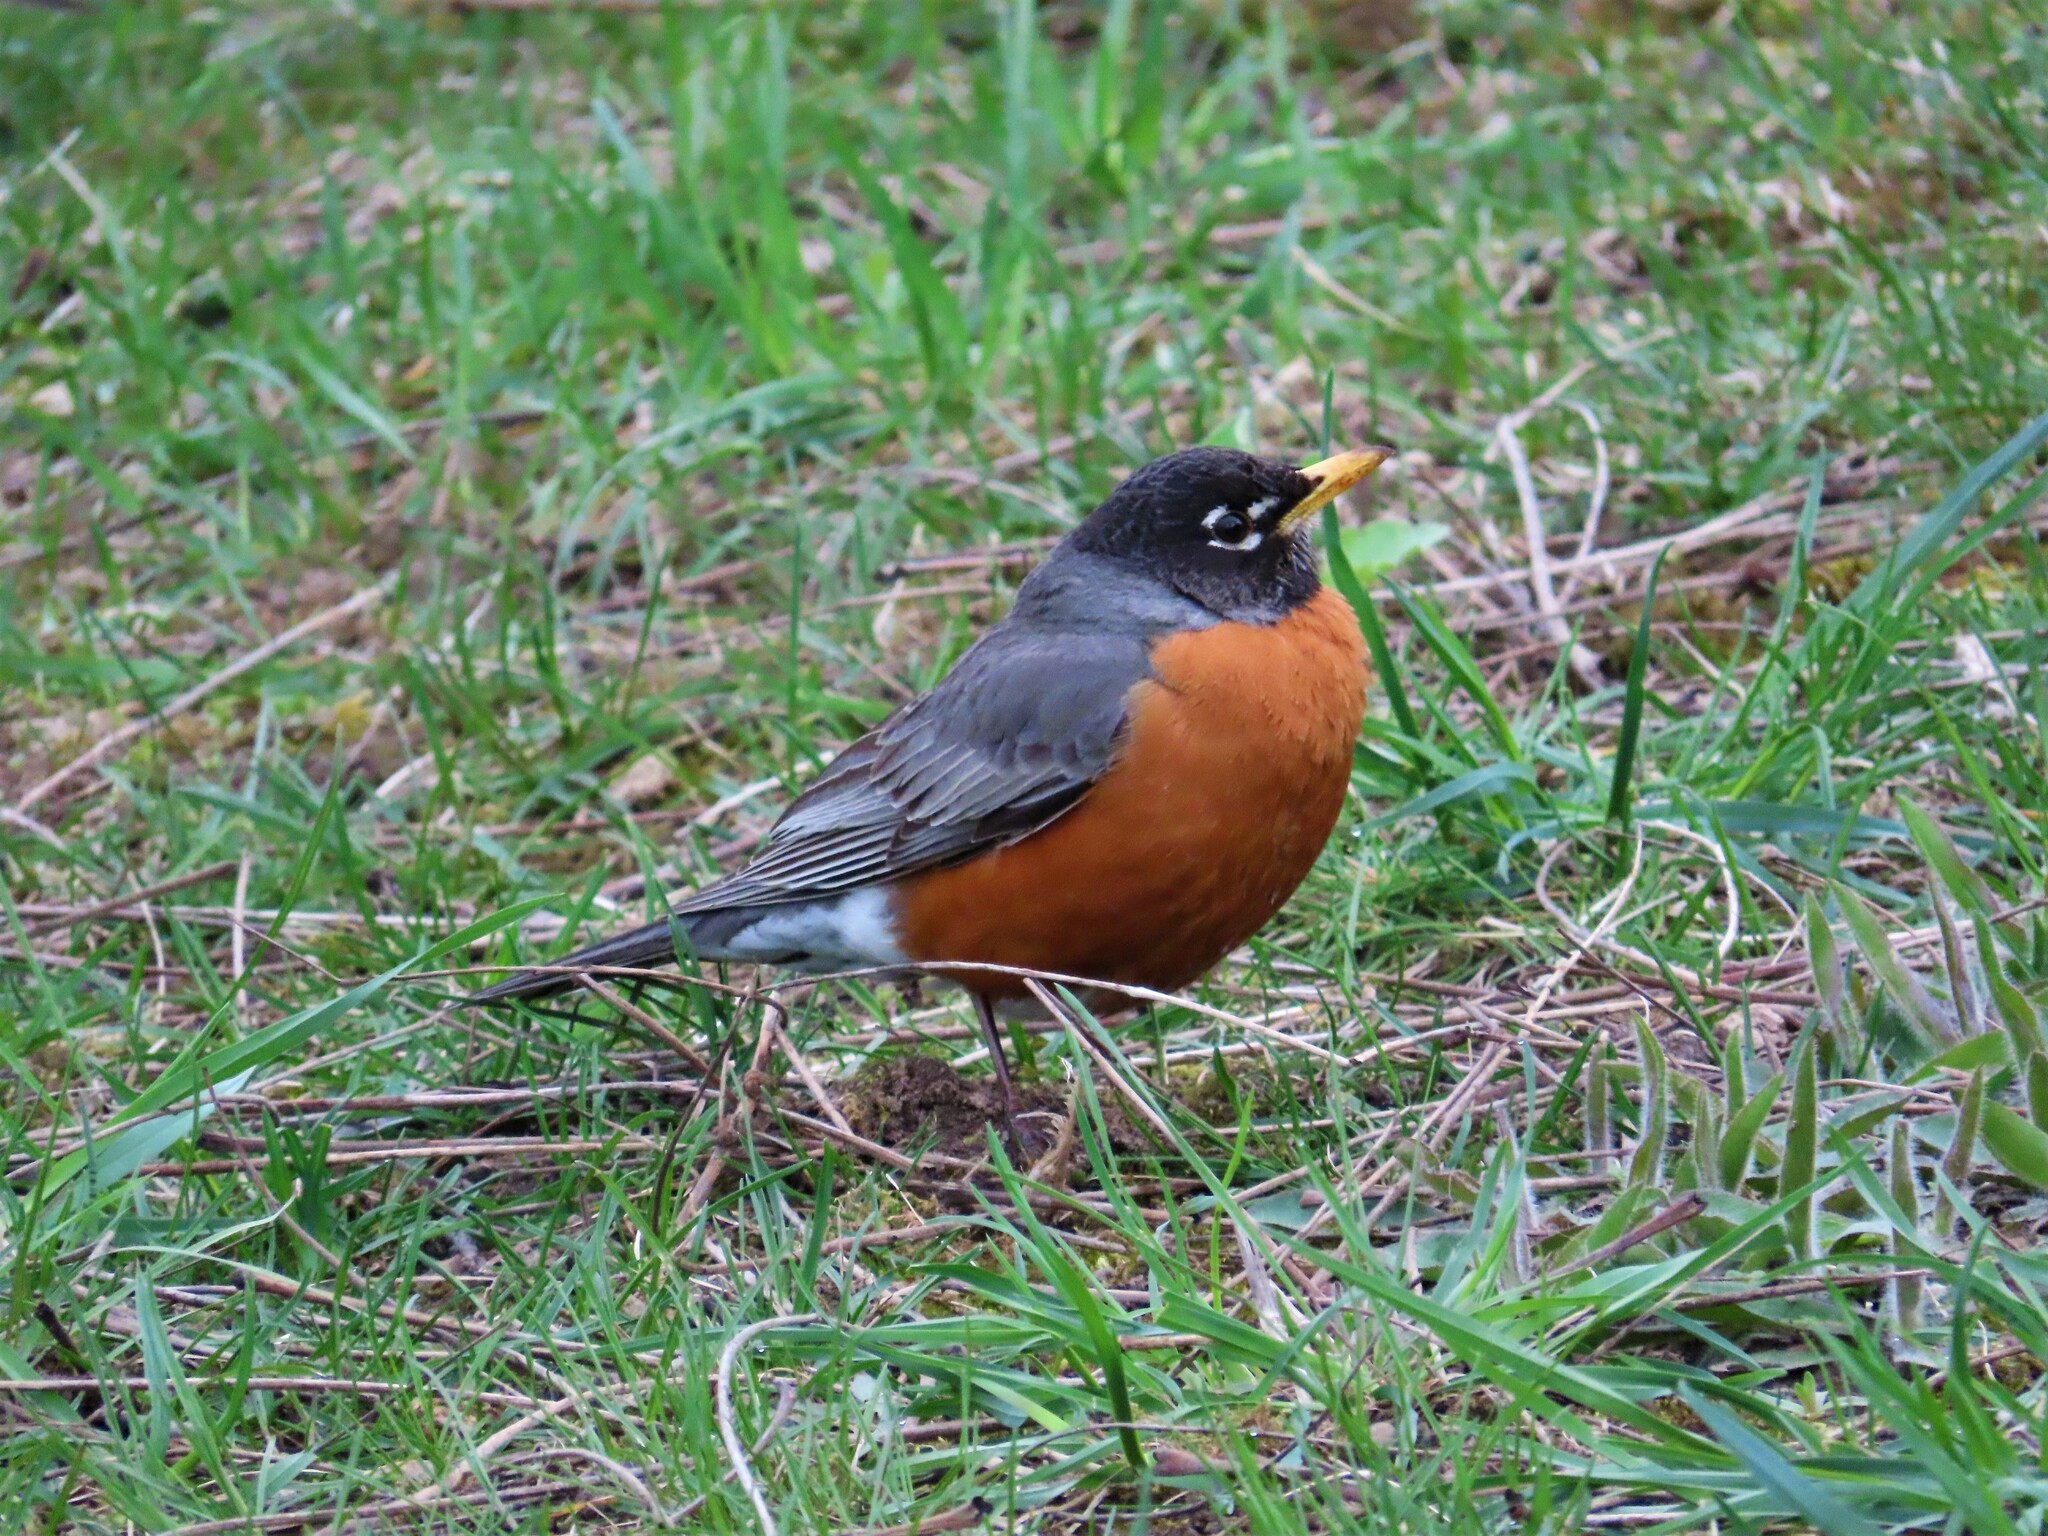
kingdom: Animalia
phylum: Chordata
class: Aves
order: Passeriformes
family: Turdidae
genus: Turdus
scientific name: Turdus migratorius
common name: American robin
